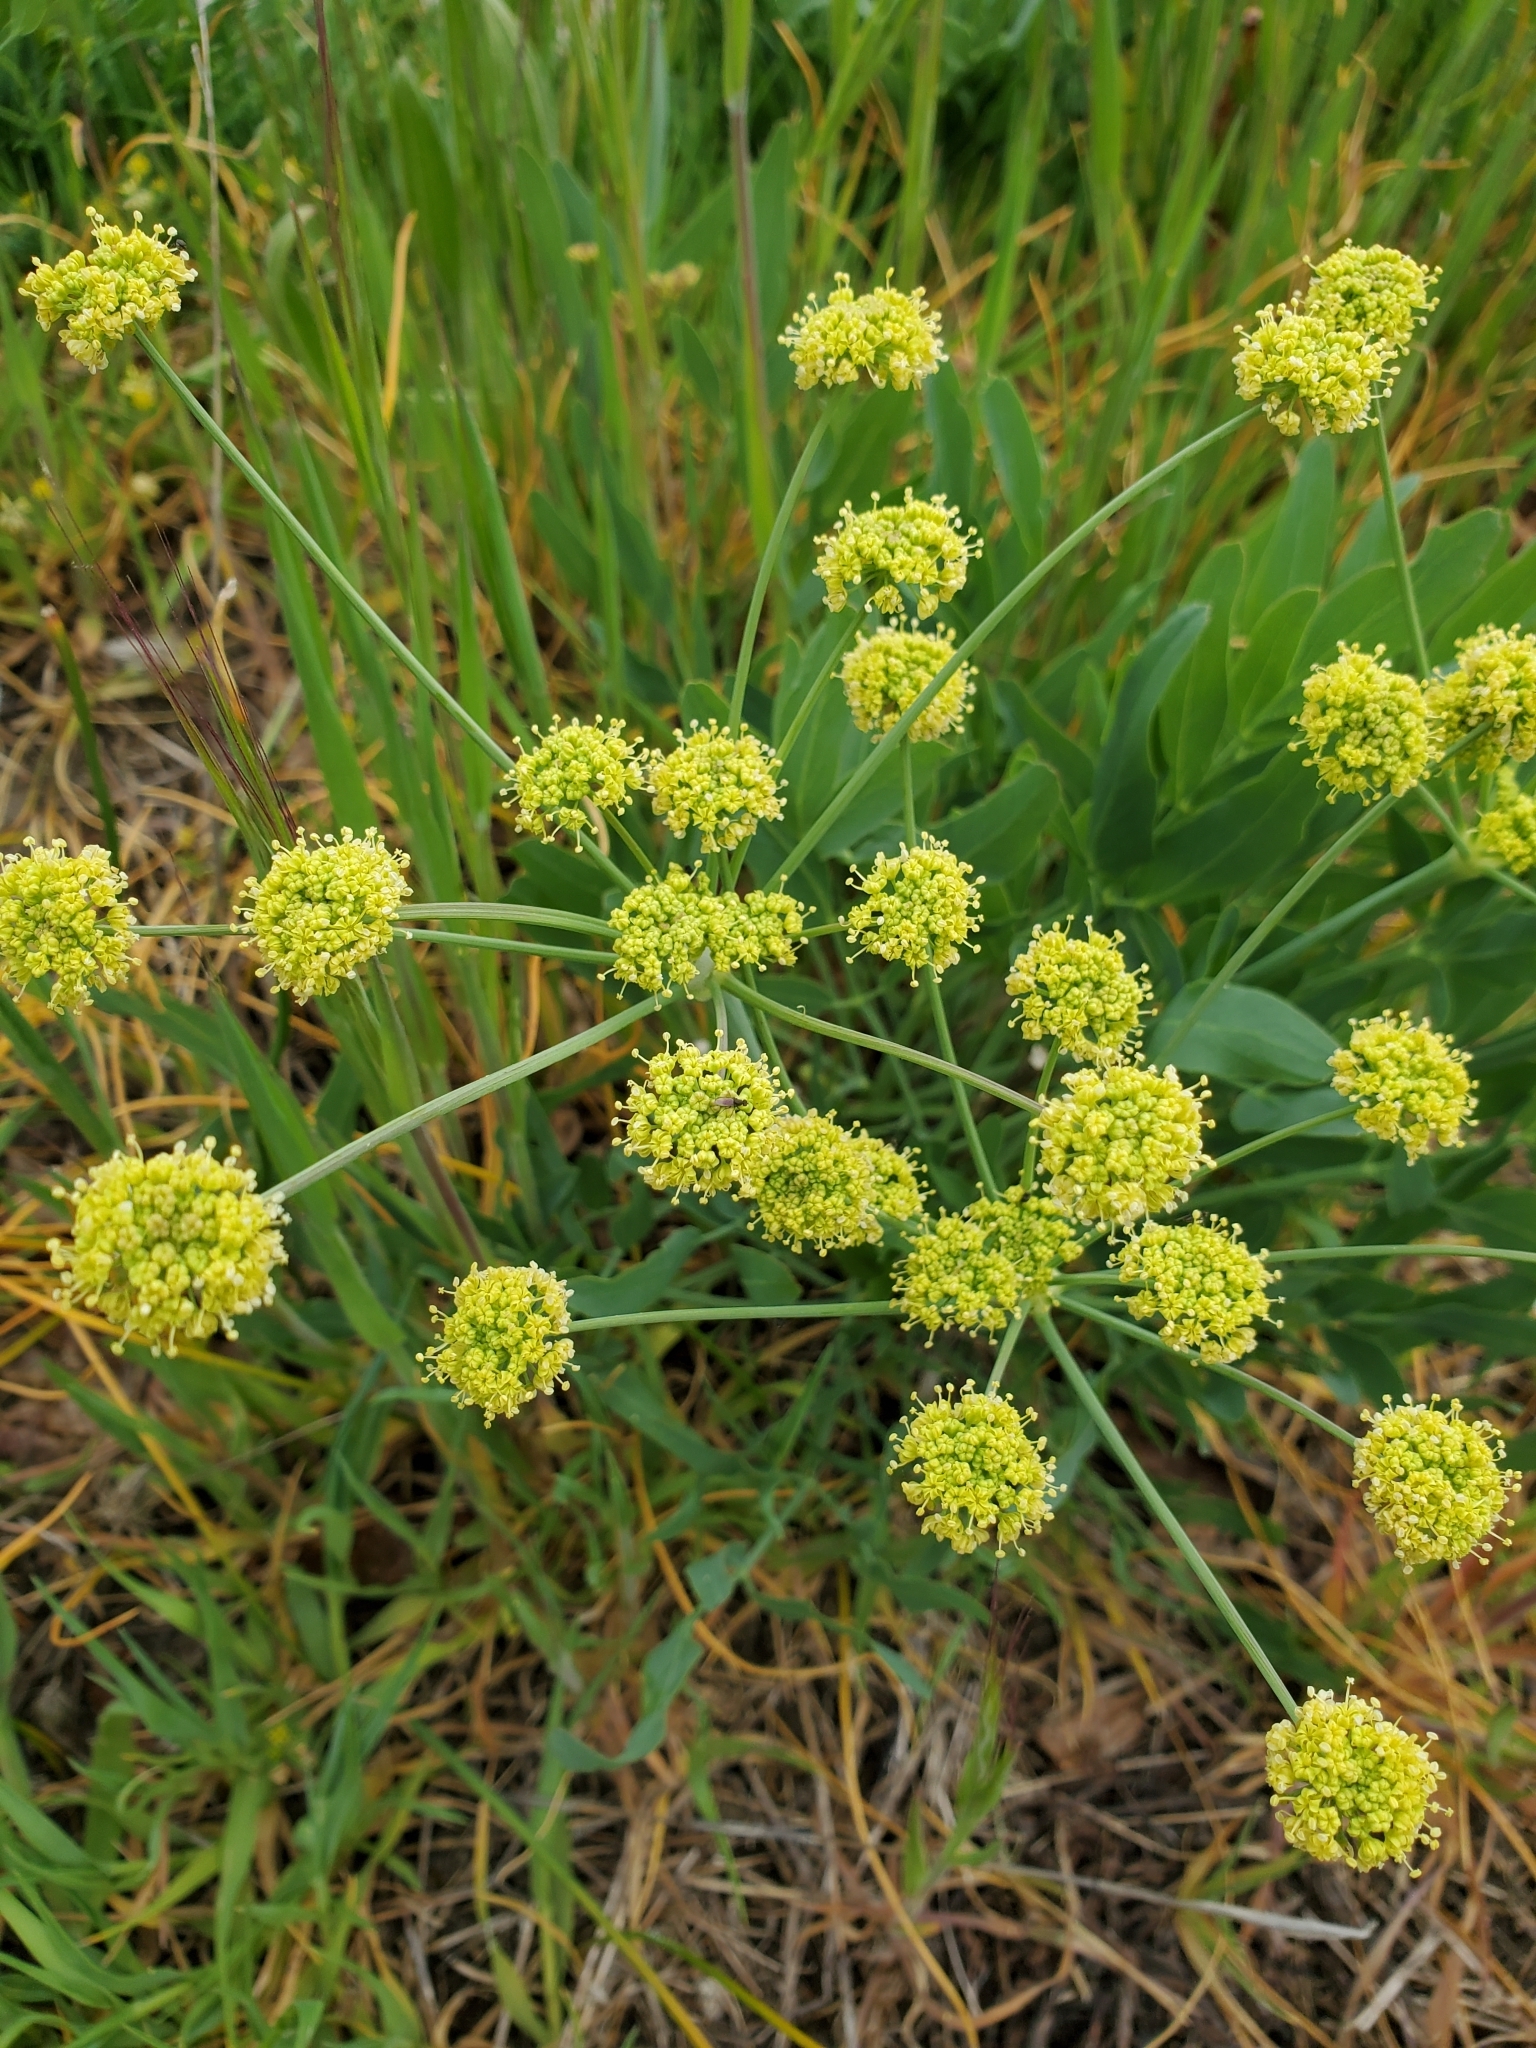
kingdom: Plantae
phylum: Tracheophyta
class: Magnoliopsida
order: Apiales
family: Apiaceae
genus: Lomatium
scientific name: Lomatium nudicaule
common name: Pestle lomatium
